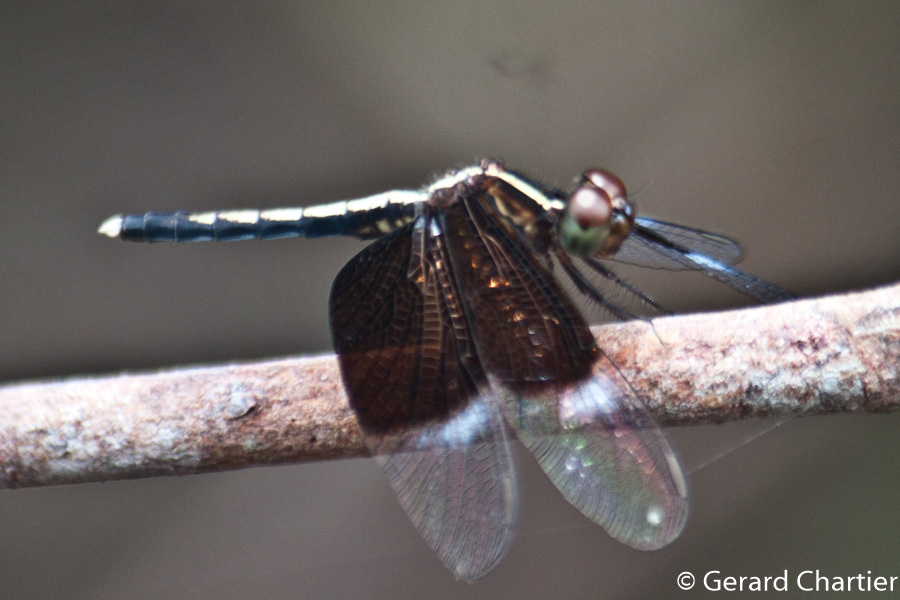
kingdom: Animalia
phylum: Arthropoda
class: Insecta
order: Odonata
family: Libellulidae
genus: Neurothemis
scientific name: Neurothemis tullia
